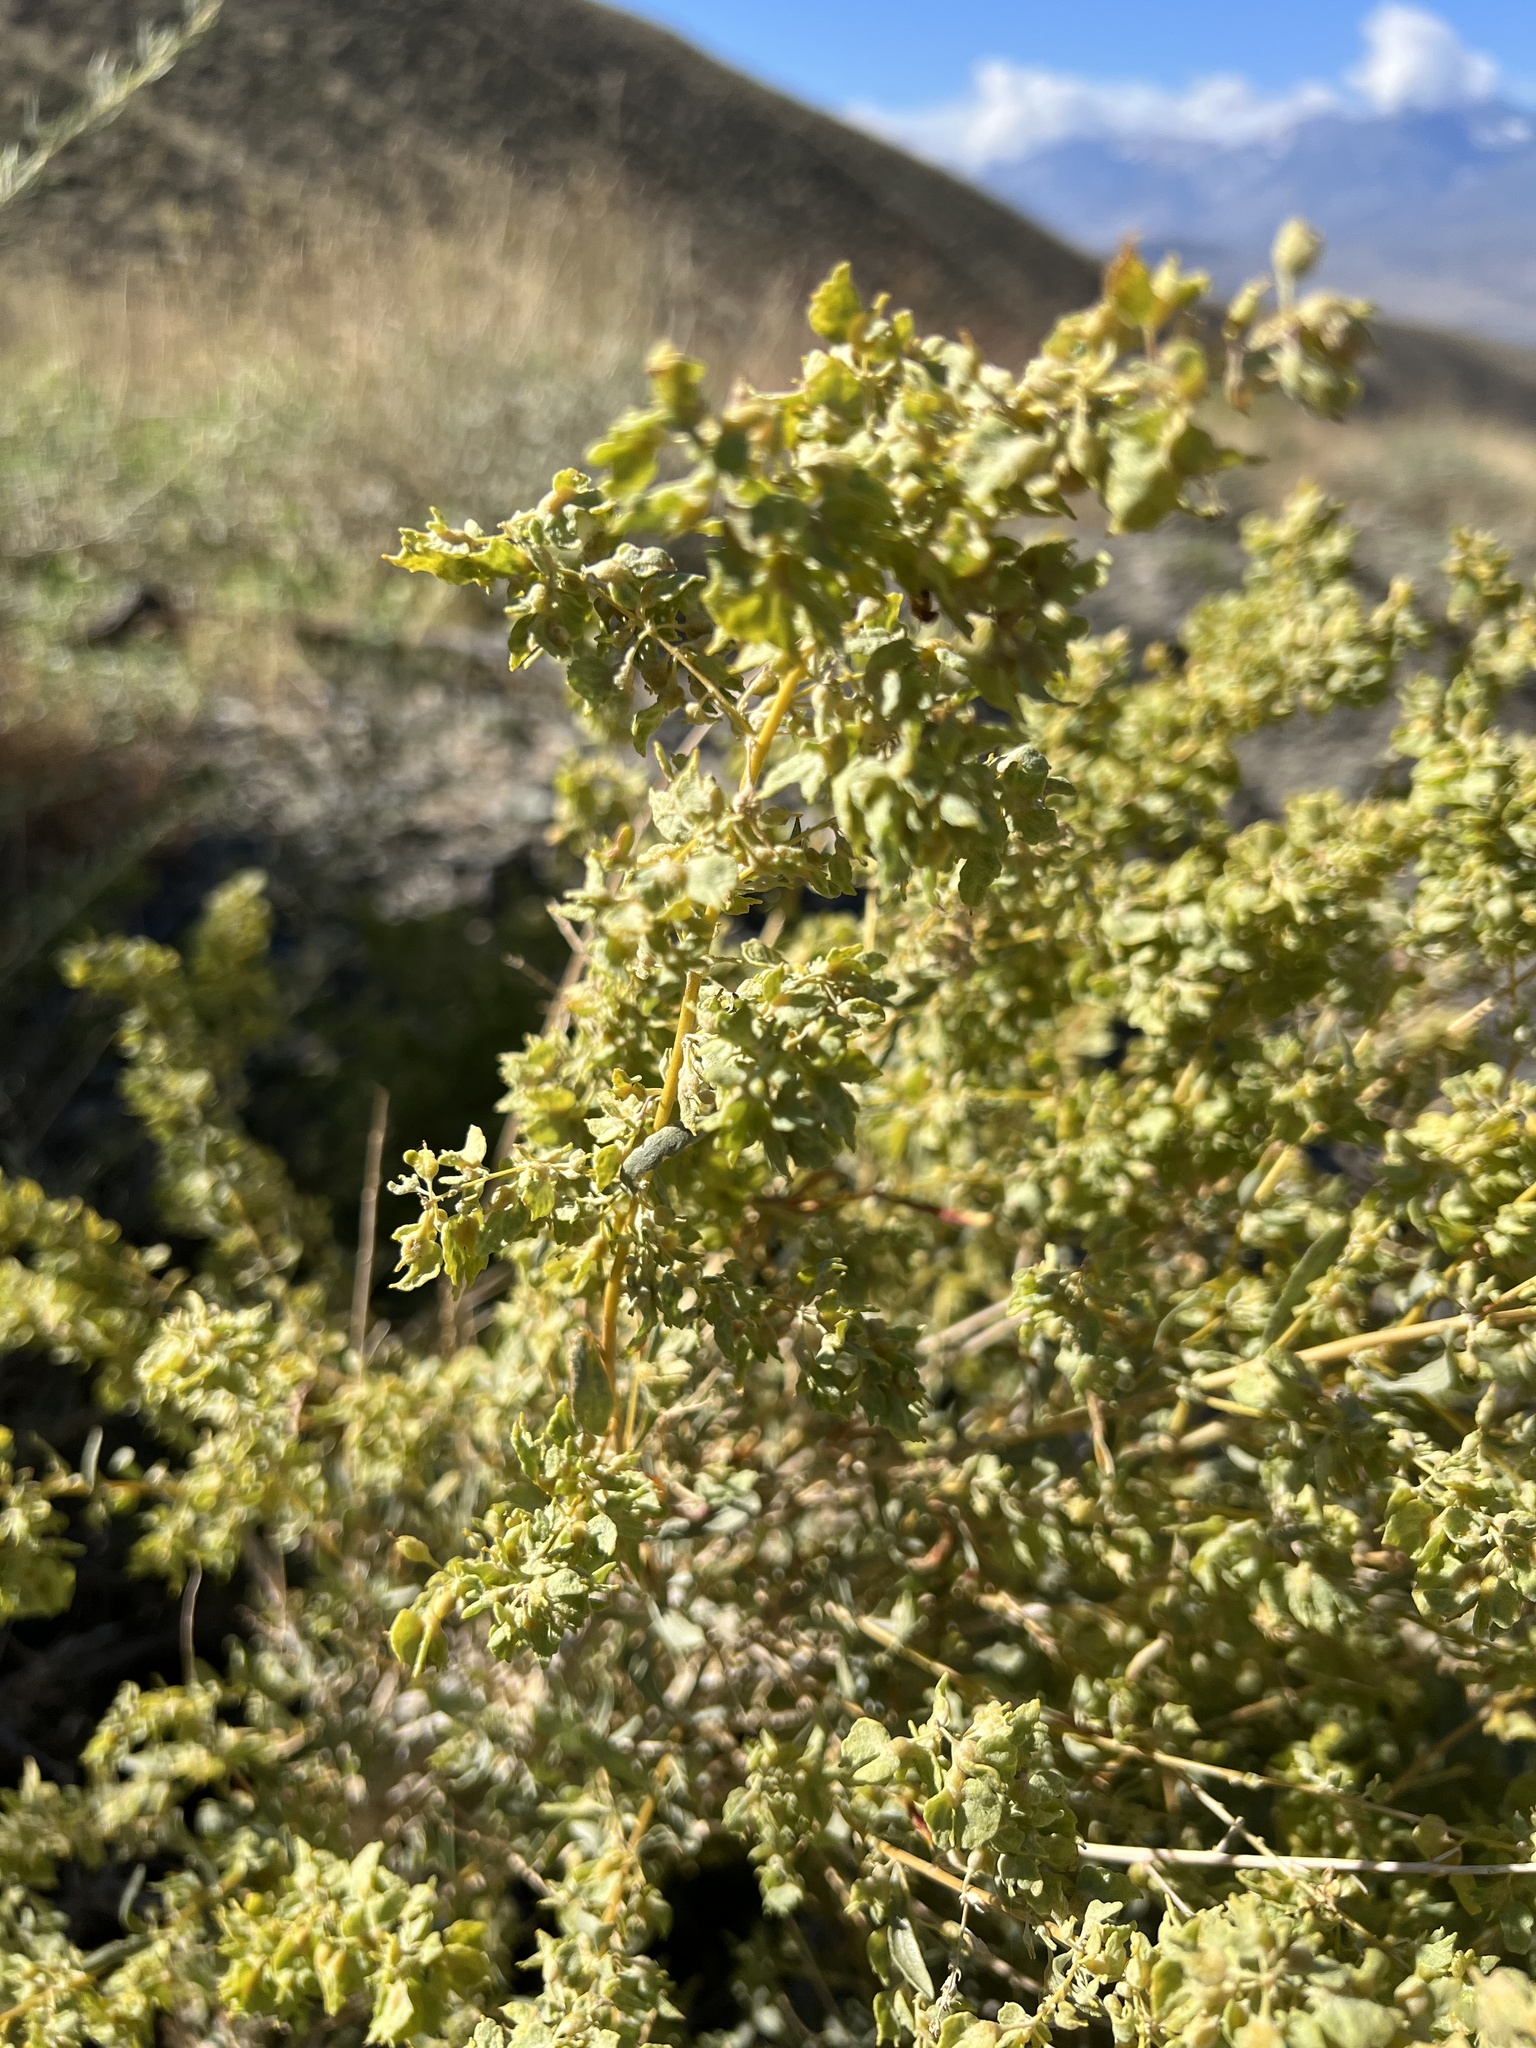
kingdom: Plantae
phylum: Tracheophyta
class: Magnoliopsida
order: Caryophyllales
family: Amaranthaceae
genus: Atriplex
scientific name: Atriplex canescens
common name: Four-wing saltbush
